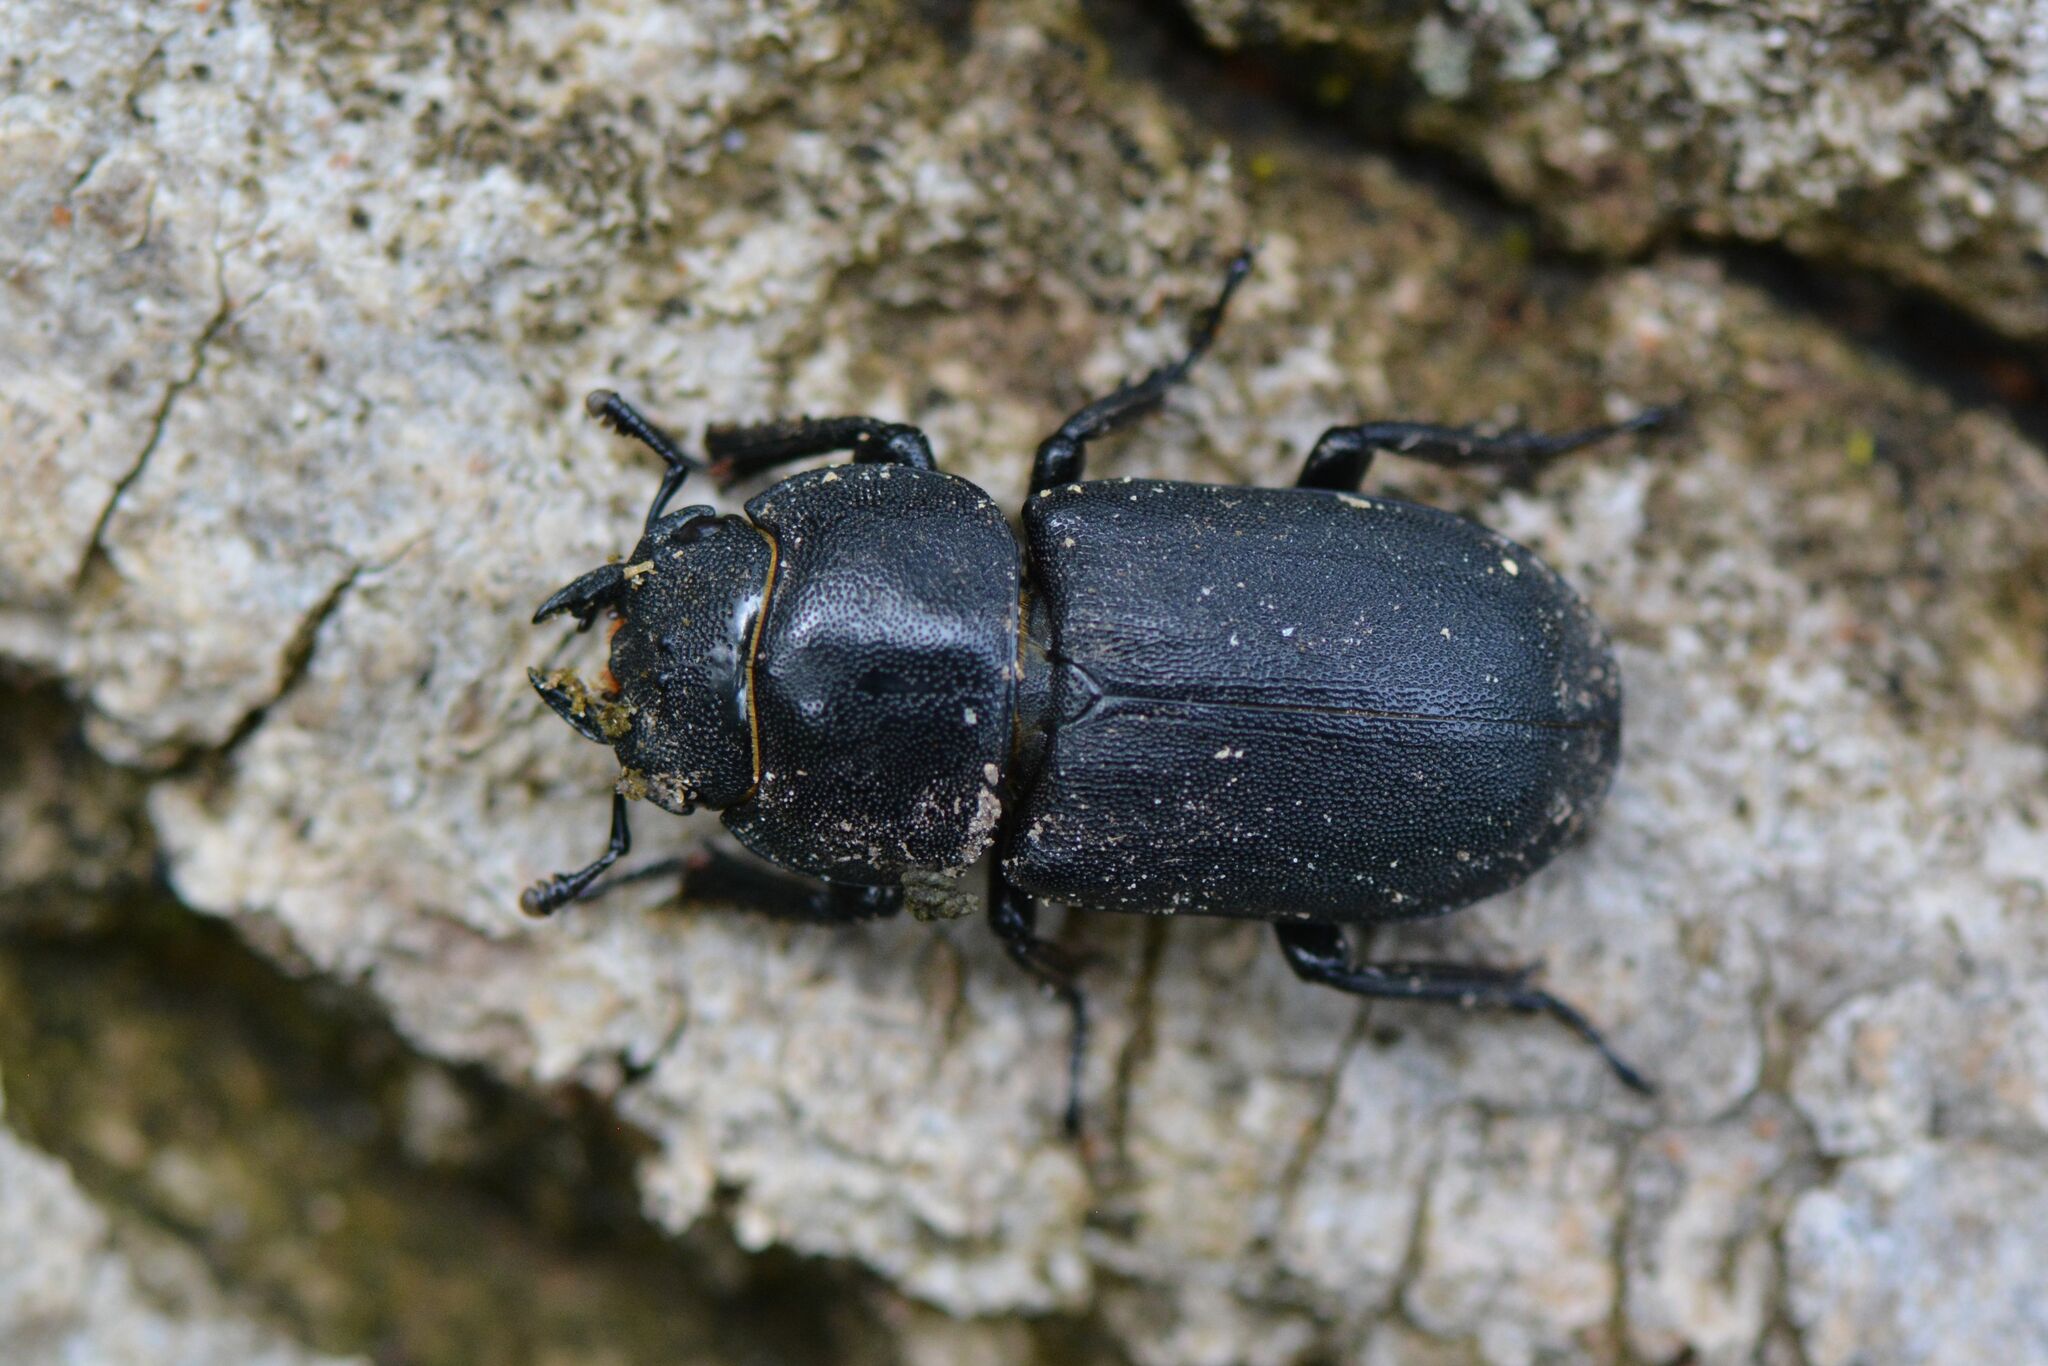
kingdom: Animalia
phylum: Arthropoda
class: Insecta
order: Coleoptera
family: Lucanidae
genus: Dorcus
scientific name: Dorcus parallelipipedus
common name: Lesser stag beetle
